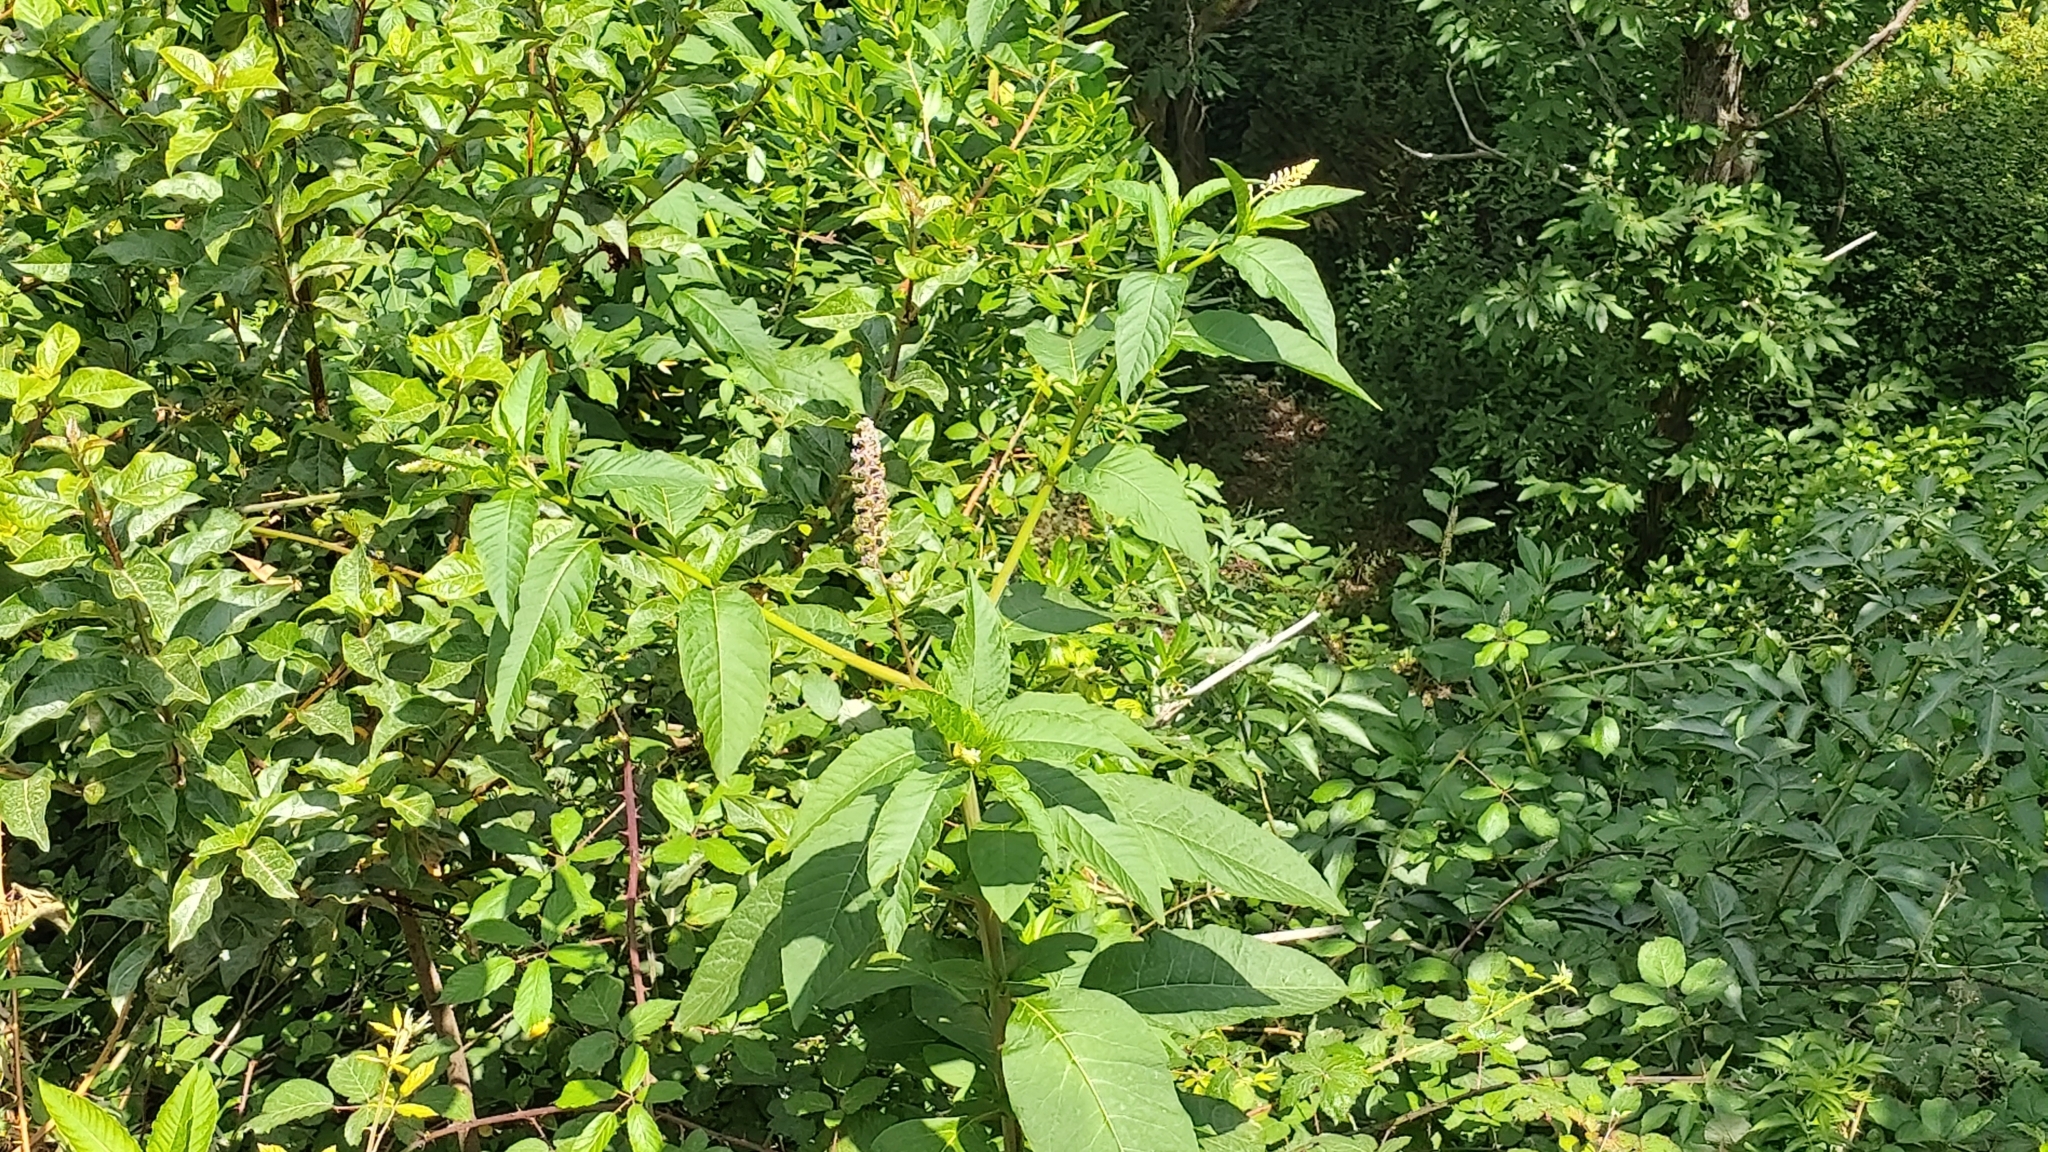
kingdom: Plantae
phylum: Tracheophyta
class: Magnoliopsida
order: Caryophyllales
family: Phytolaccaceae
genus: Phytolacca
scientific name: Phytolacca americana
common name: American pokeweed
